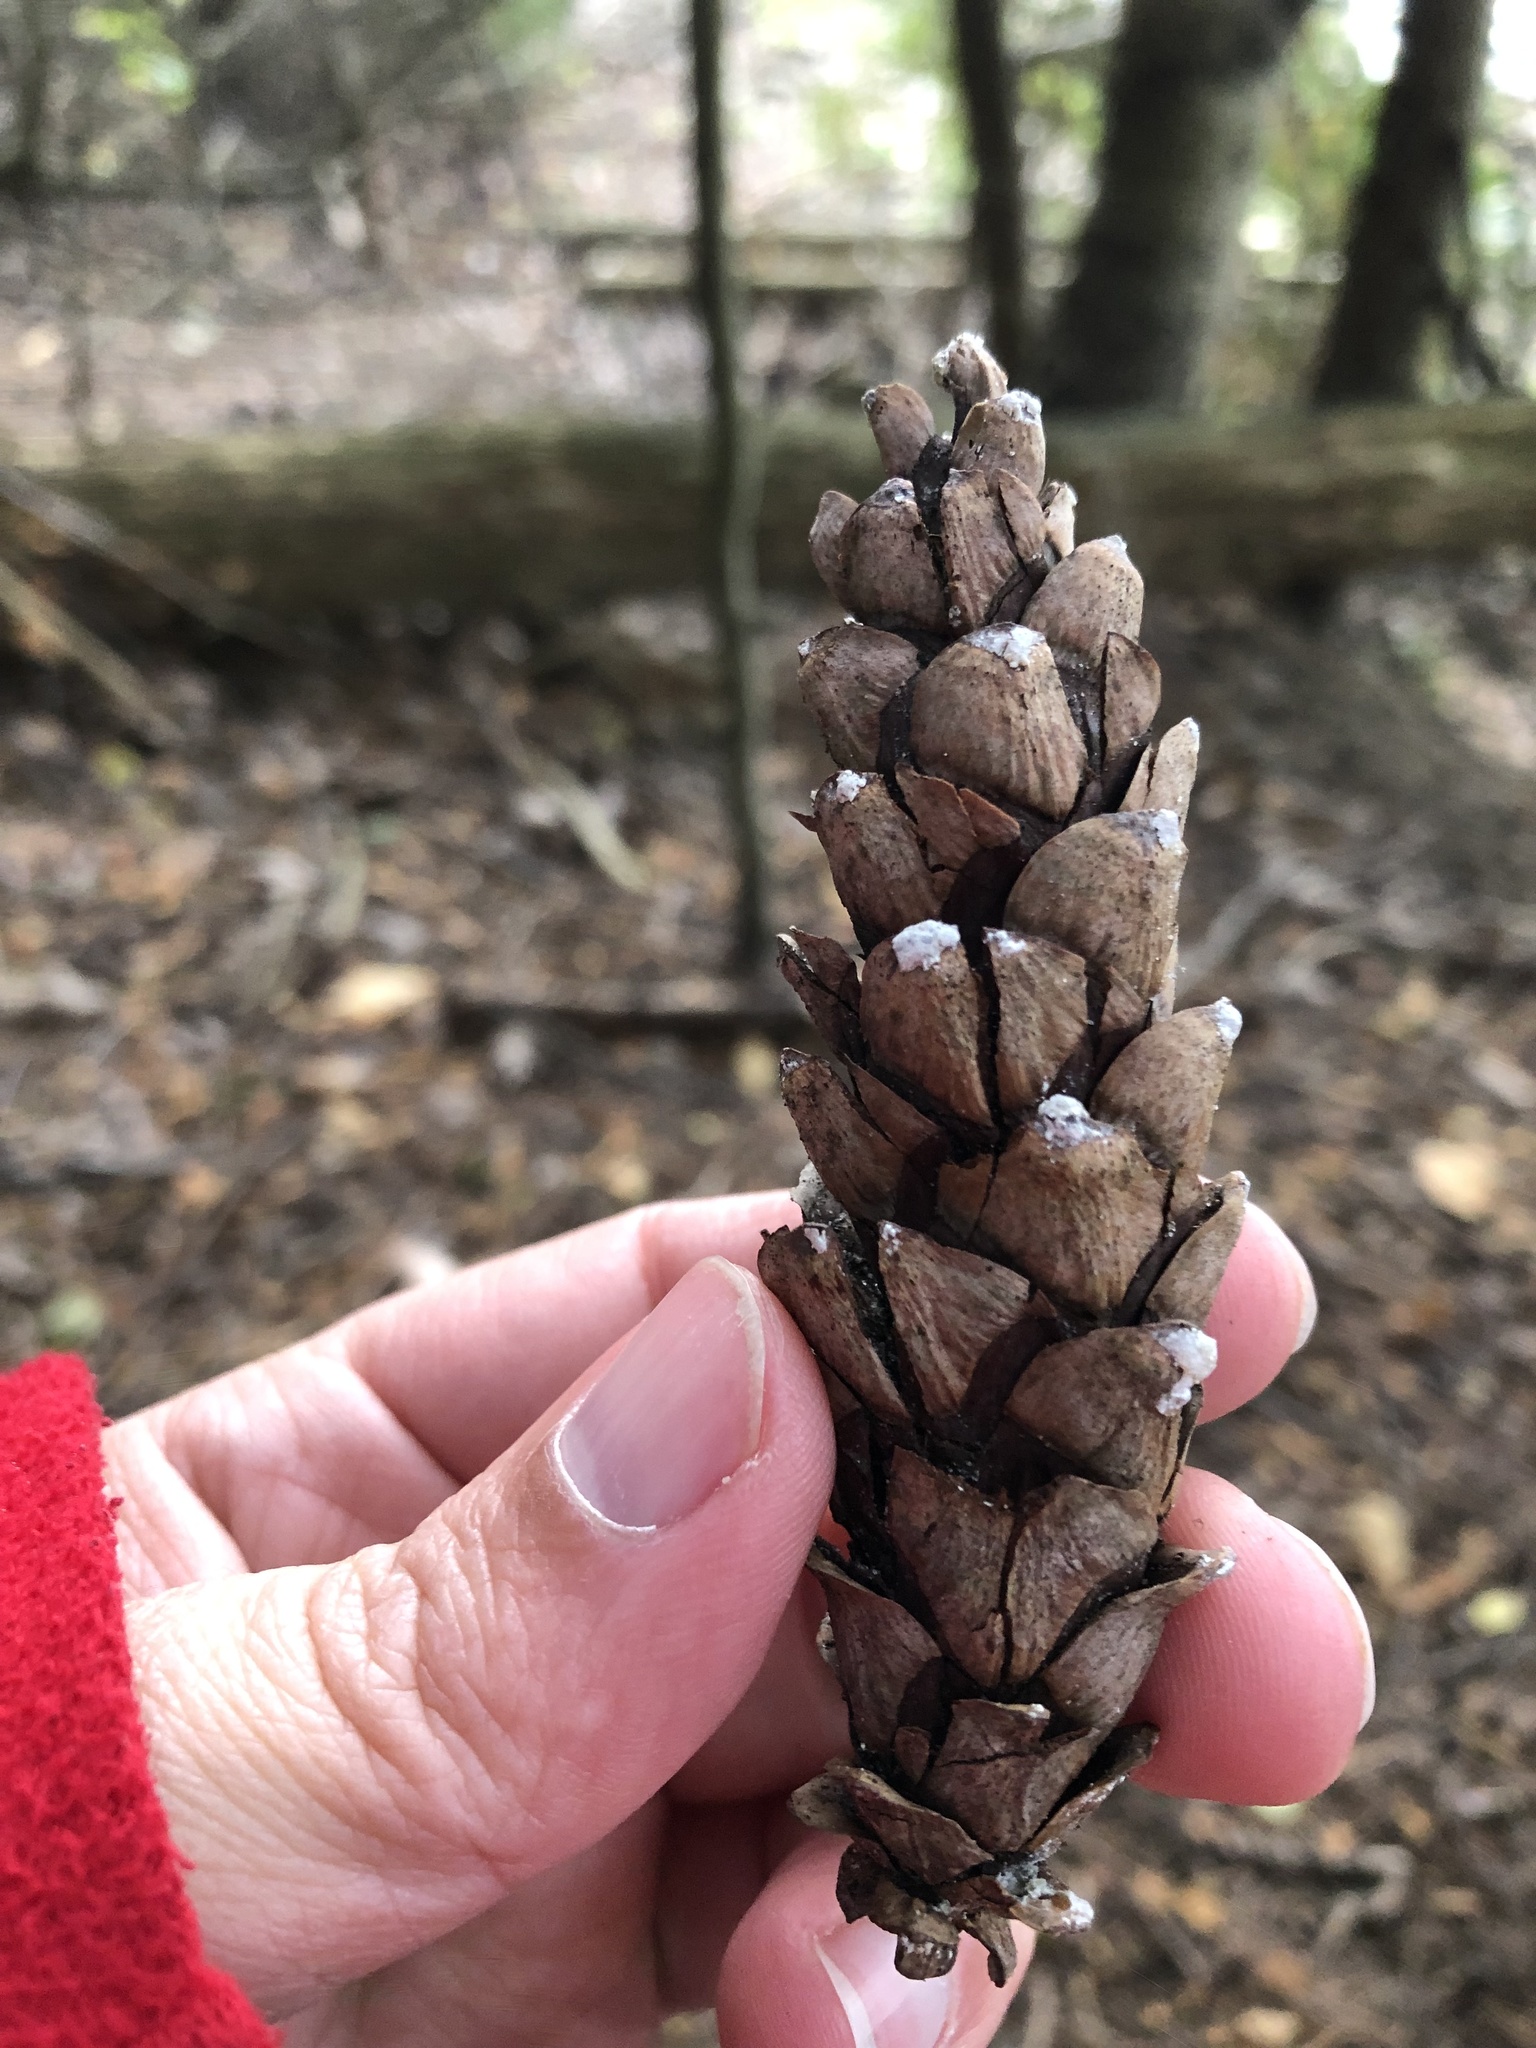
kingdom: Plantae
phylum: Tracheophyta
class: Pinopsida
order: Pinales
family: Pinaceae
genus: Pinus
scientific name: Pinus strobus
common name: Weymouth pine
